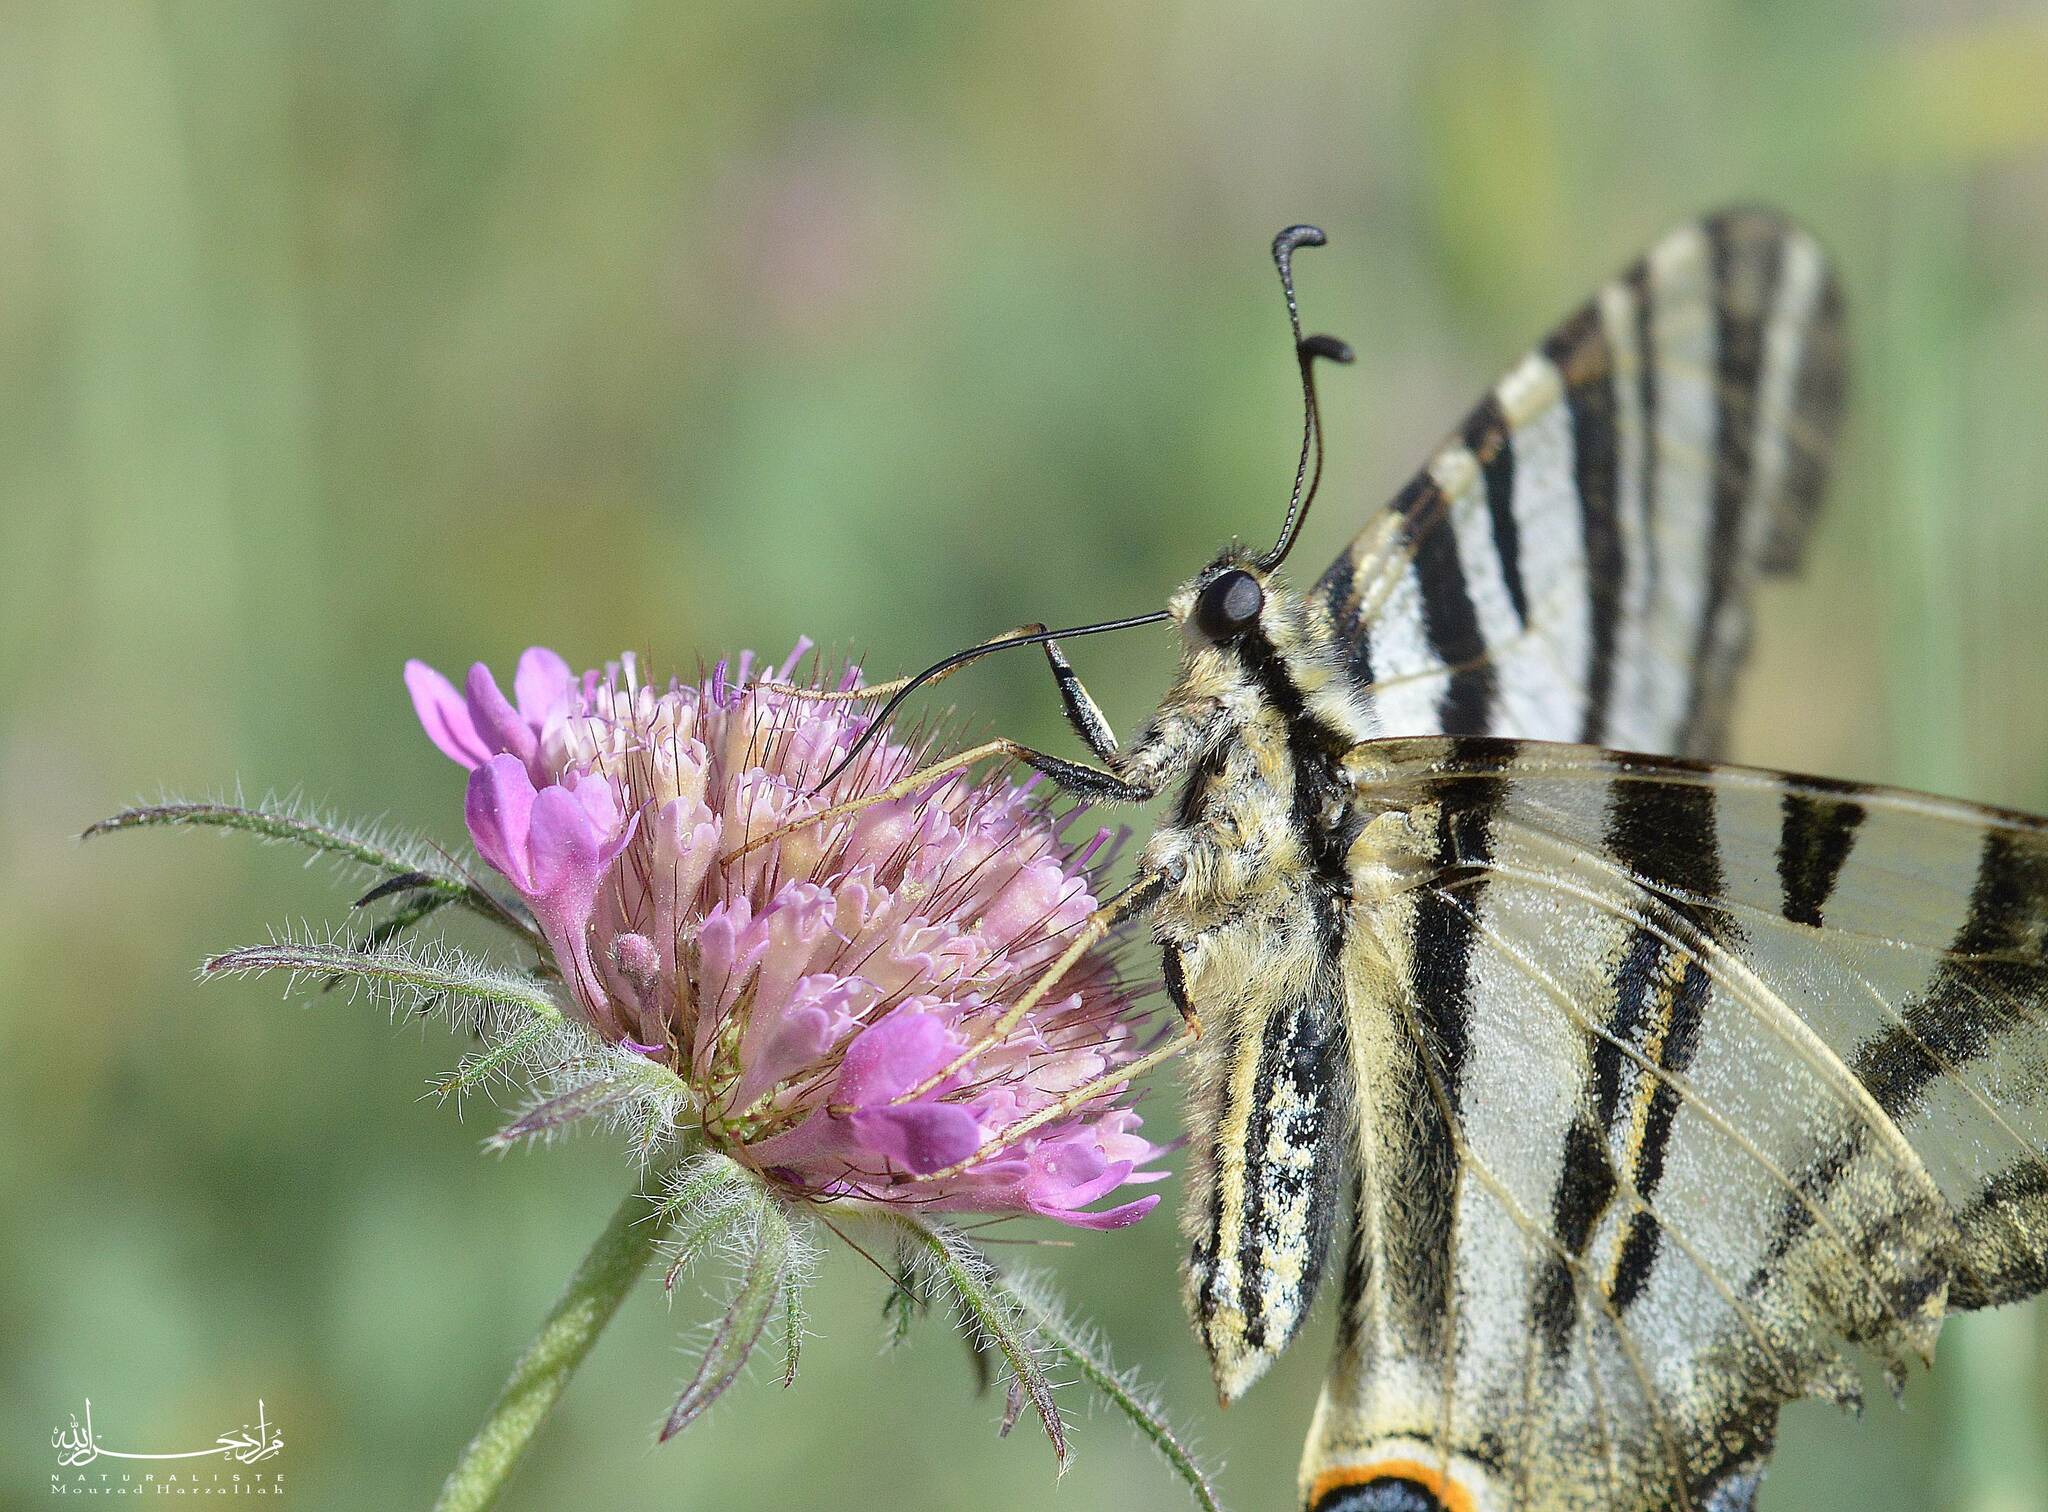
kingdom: Animalia
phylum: Arthropoda
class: Insecta
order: Lepidoptera
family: Papilionidae
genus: Iphiclides
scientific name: Iphiclides feisthamelii
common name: Iberian scarce swallowtail
